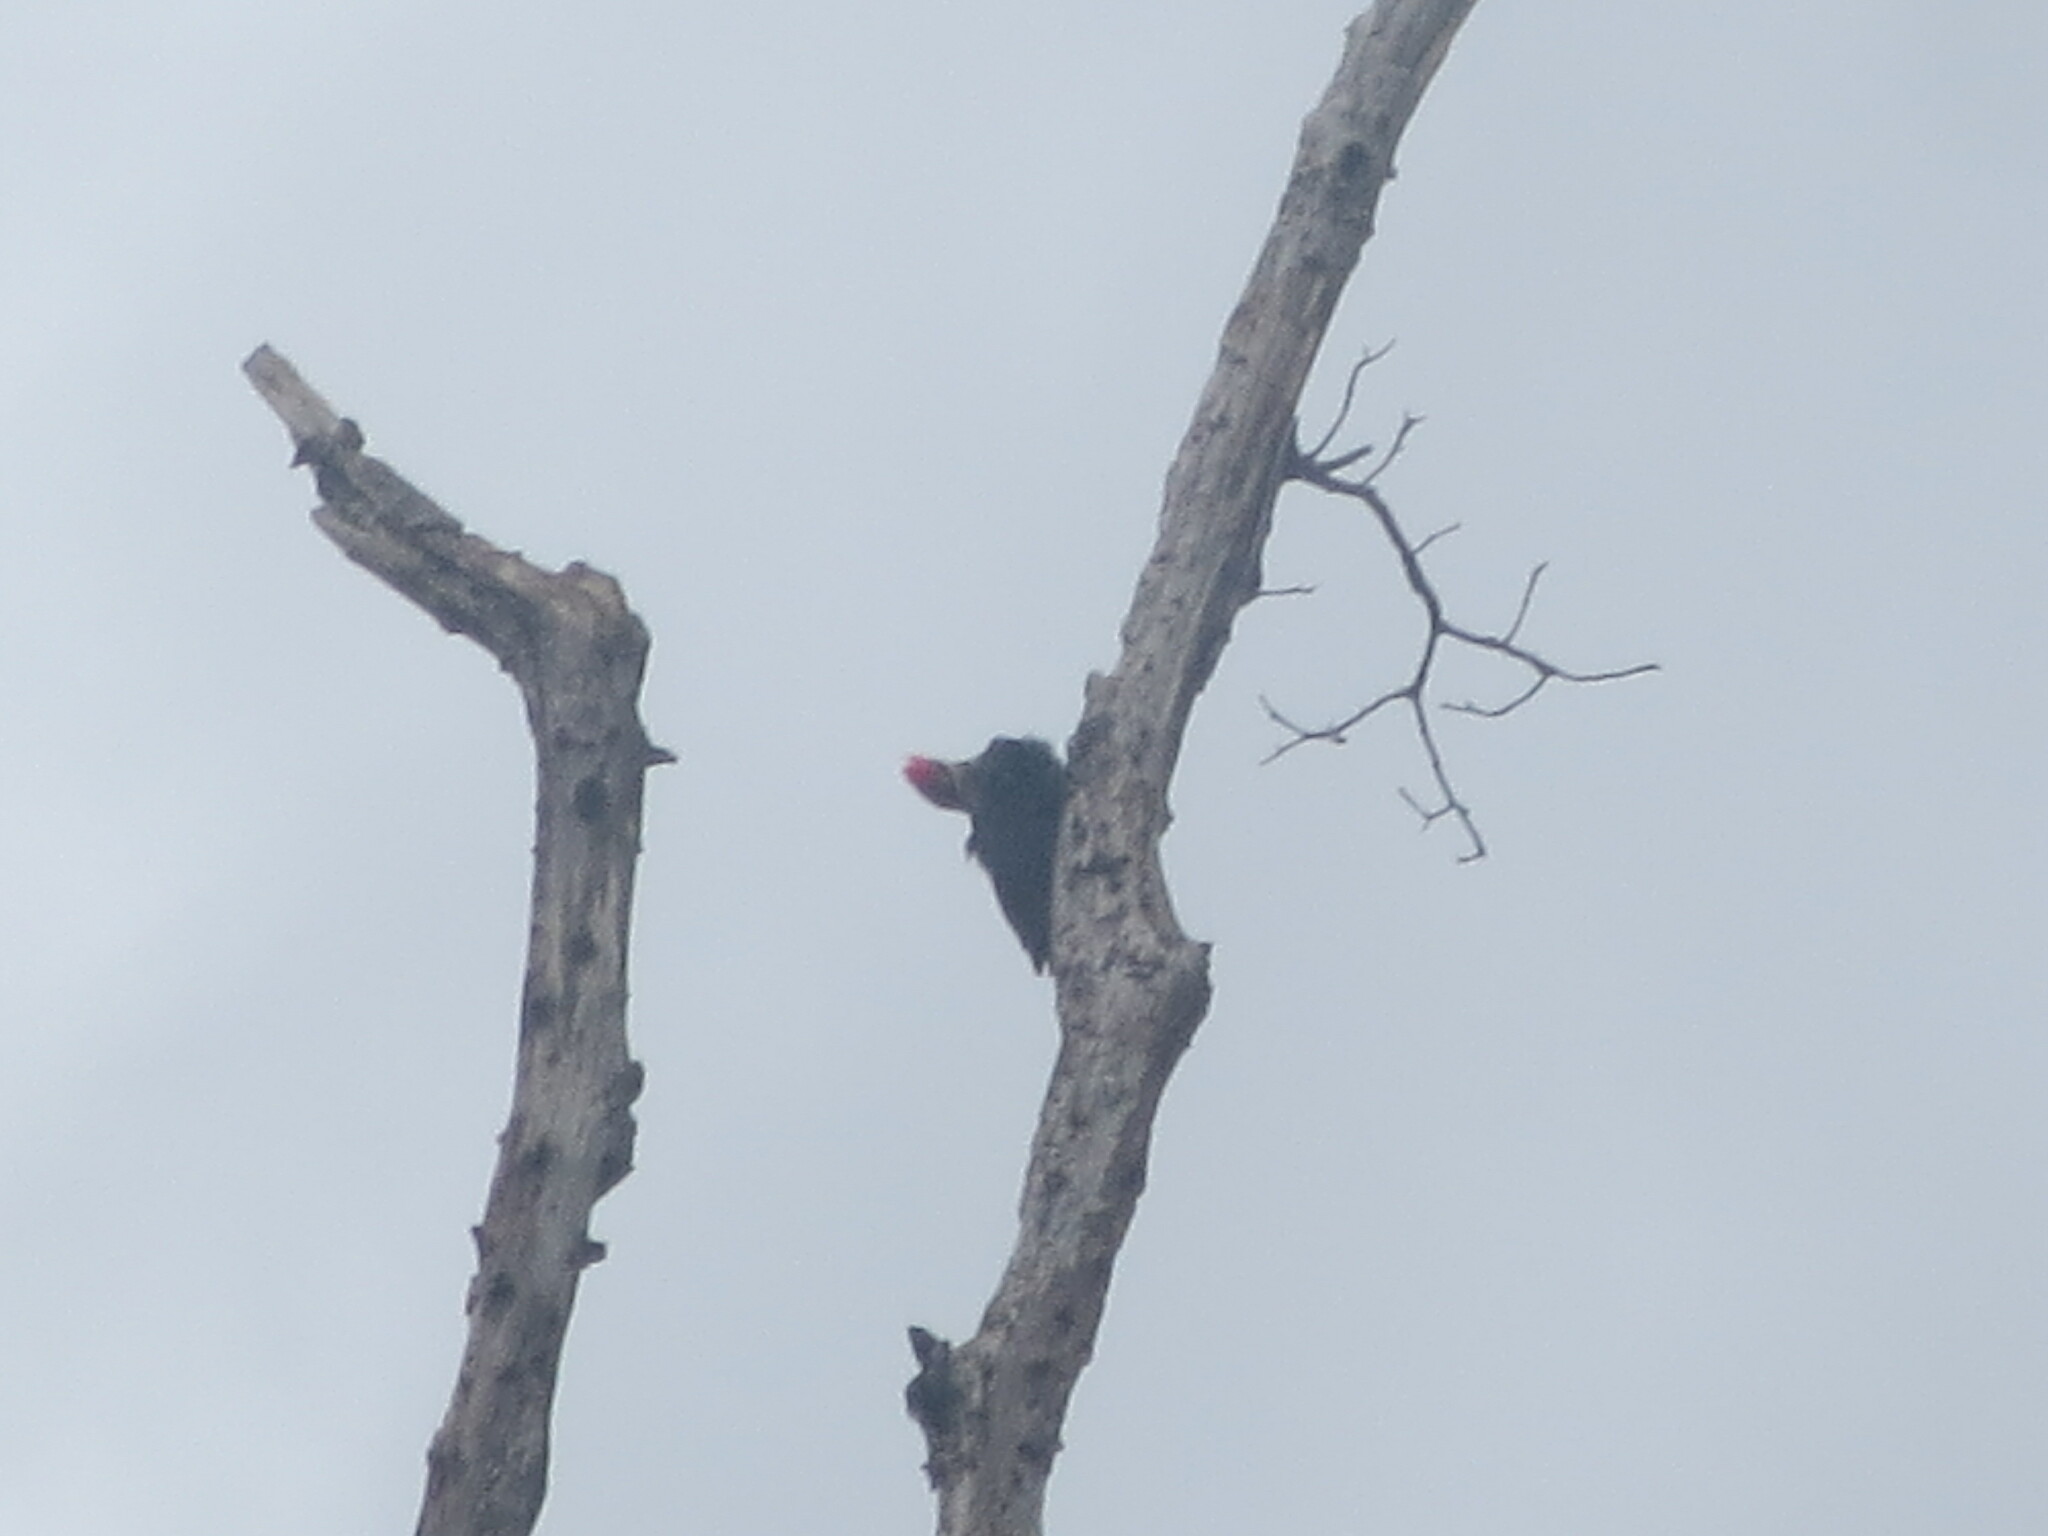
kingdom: Animalia
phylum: Chordata
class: Aves
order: Piciformes
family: Picidae
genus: Dryocopus
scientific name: Dryocopus pileatus
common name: Pileated woodpecker
